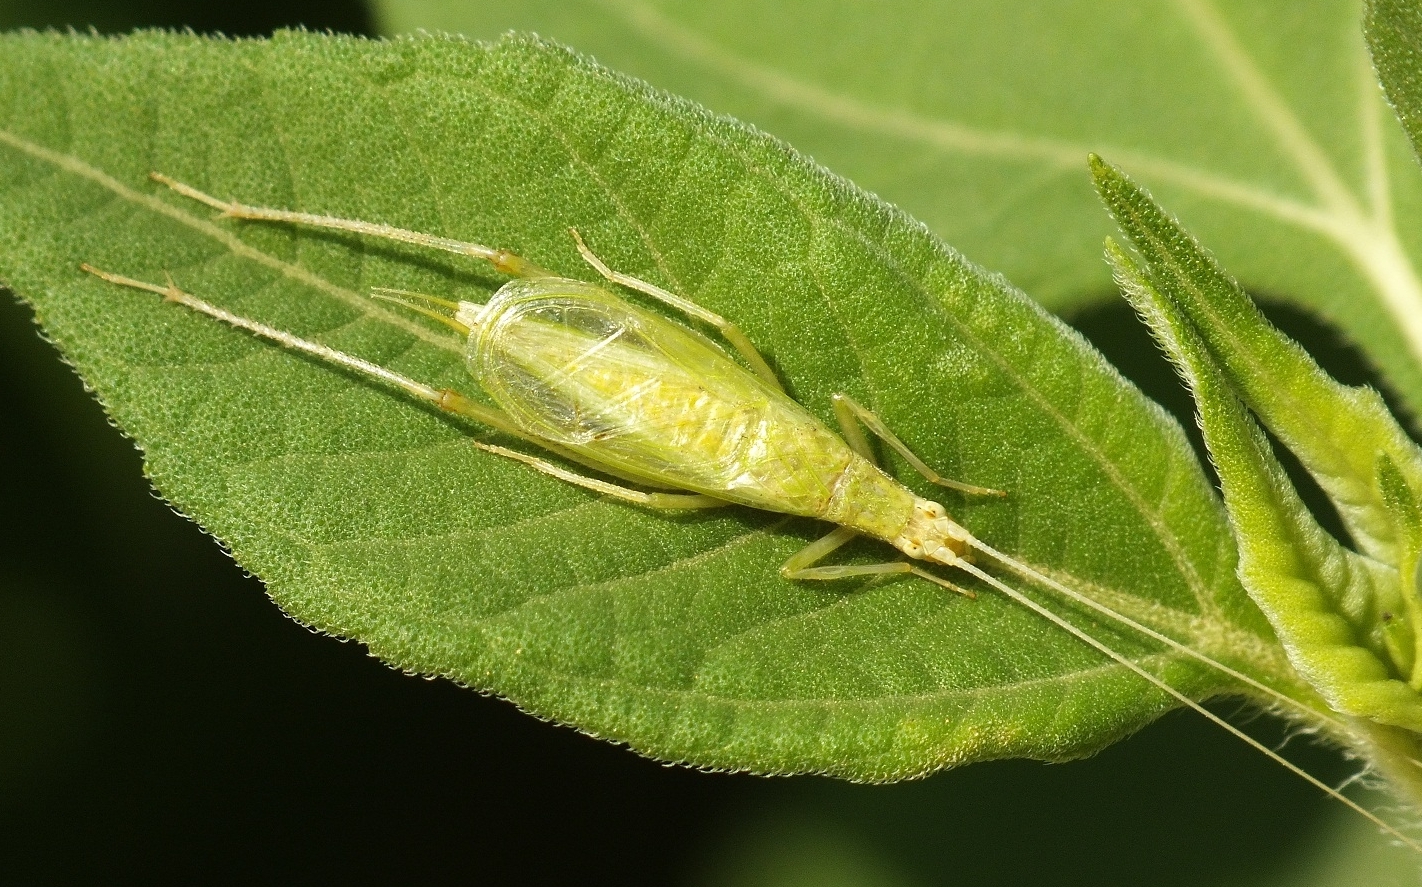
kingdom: Animalia
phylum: Arthropoda
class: Insecta
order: Orthoptera
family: Gryllidae
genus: Oecanthus
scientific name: Oecanthus pellucens
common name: Tree-cricket
